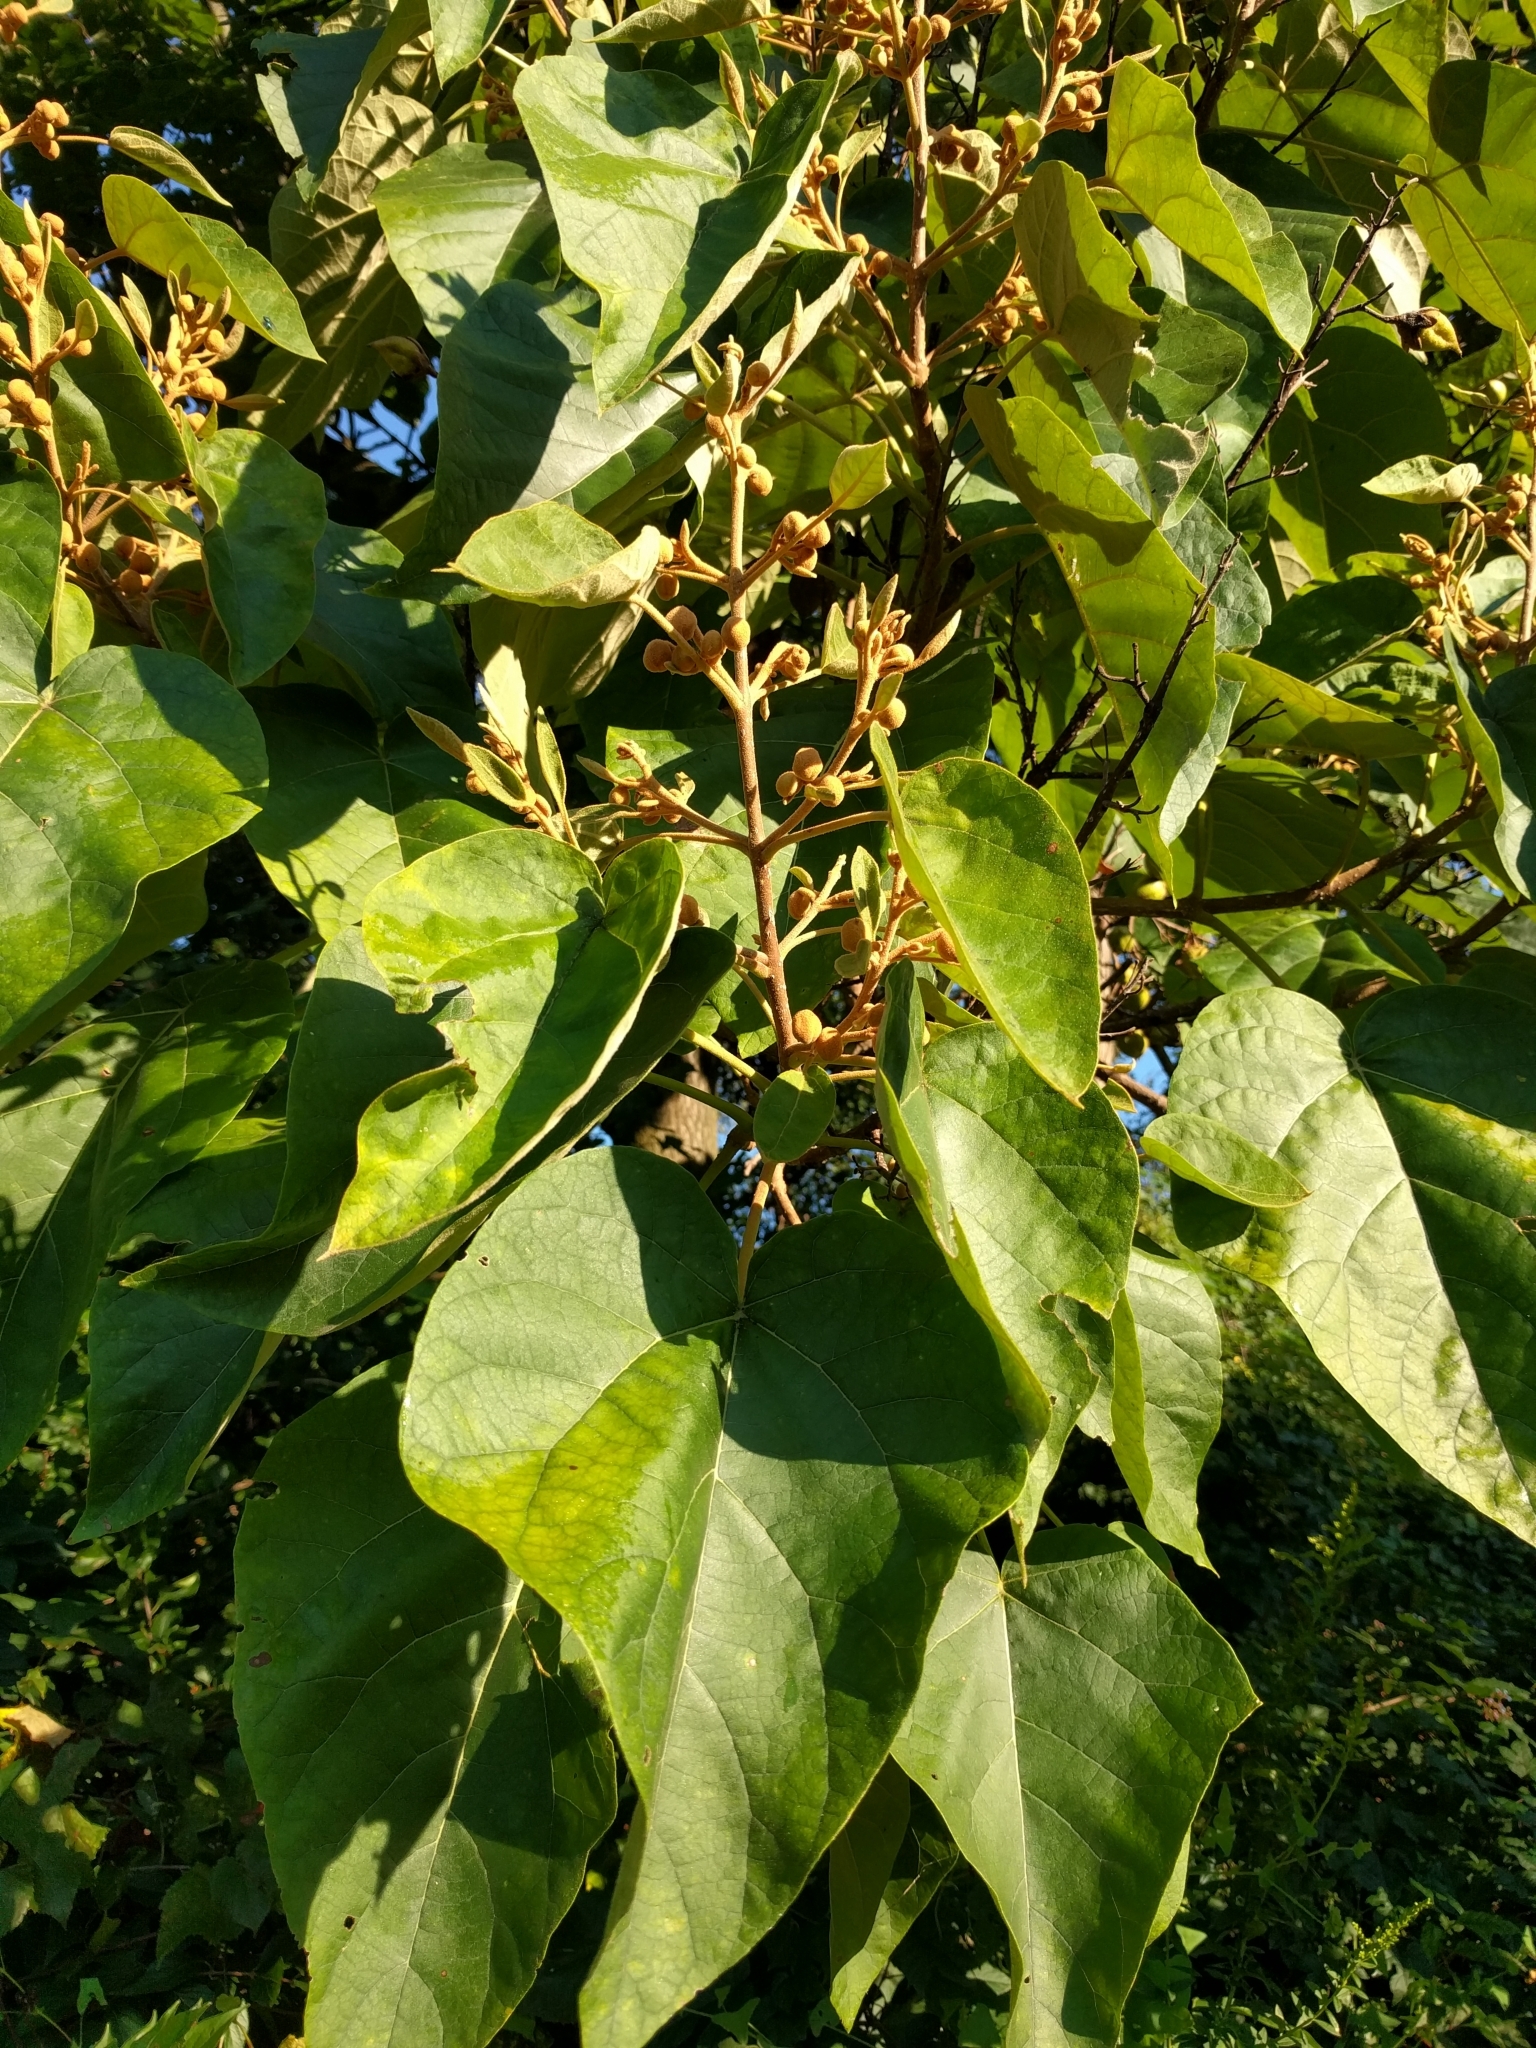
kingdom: Plantae
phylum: Tracheophyta
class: Magnoliopsida
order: Lamiales
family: Paulowniaceae
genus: Paulownia
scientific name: Paulownia tomentosa
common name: Foxglove-tree
